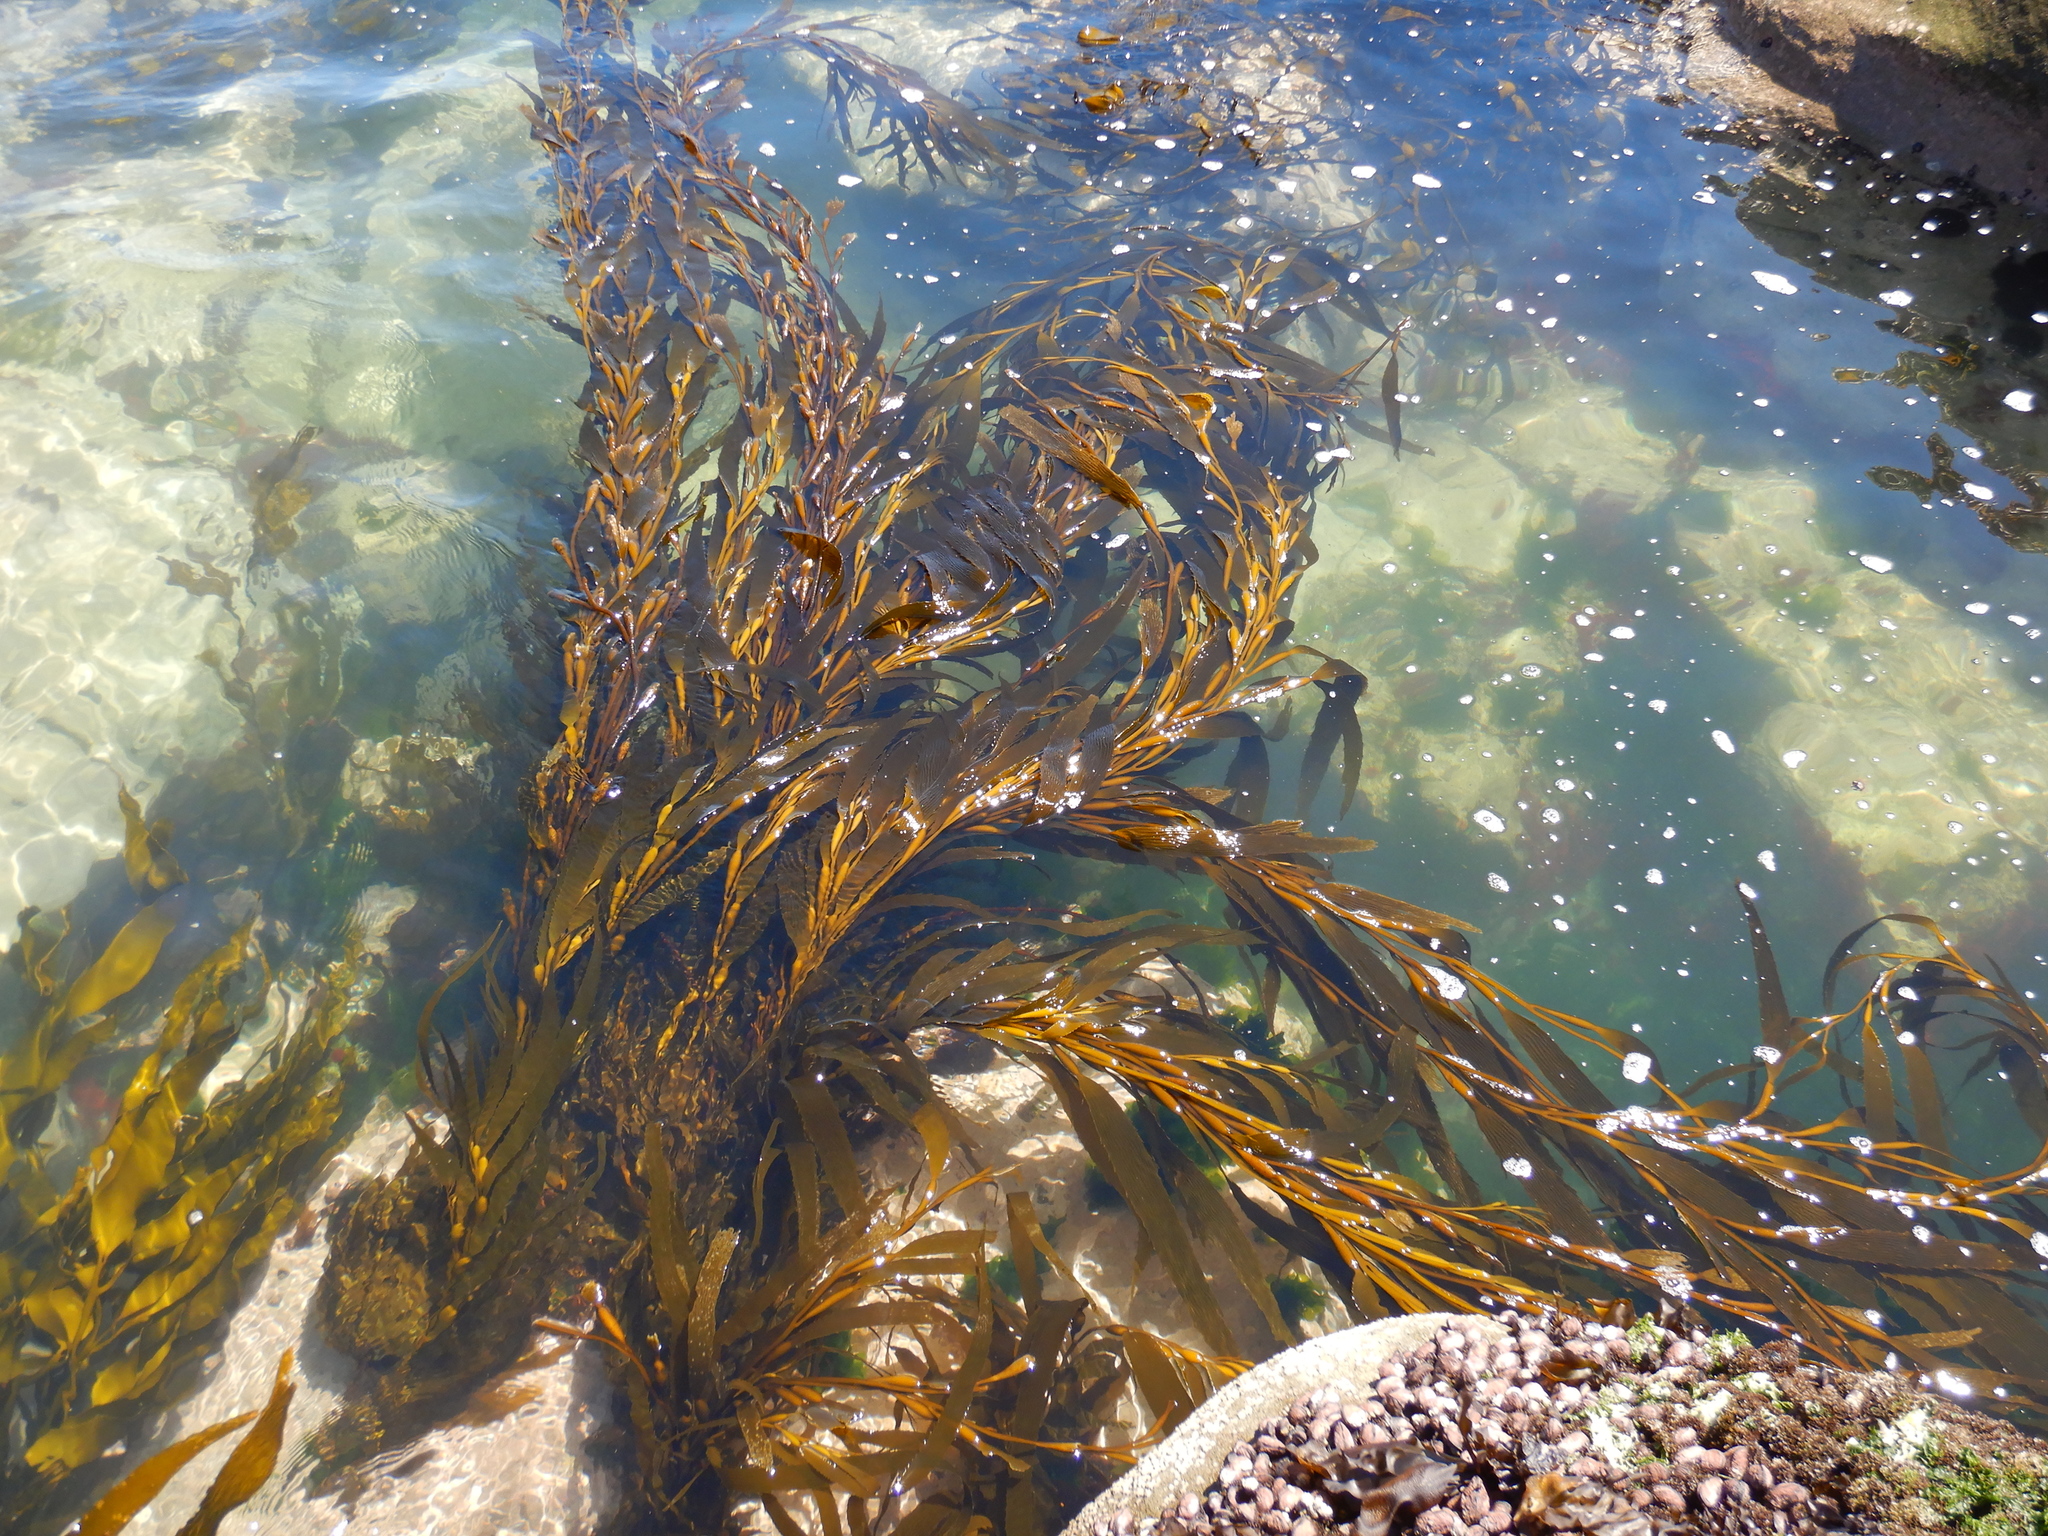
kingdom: Chromista
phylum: Ochrophyta
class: Phaeophyceae
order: Laminariales
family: Laminariaceae
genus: Macrocystis
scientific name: Macrocystis pyrifera
